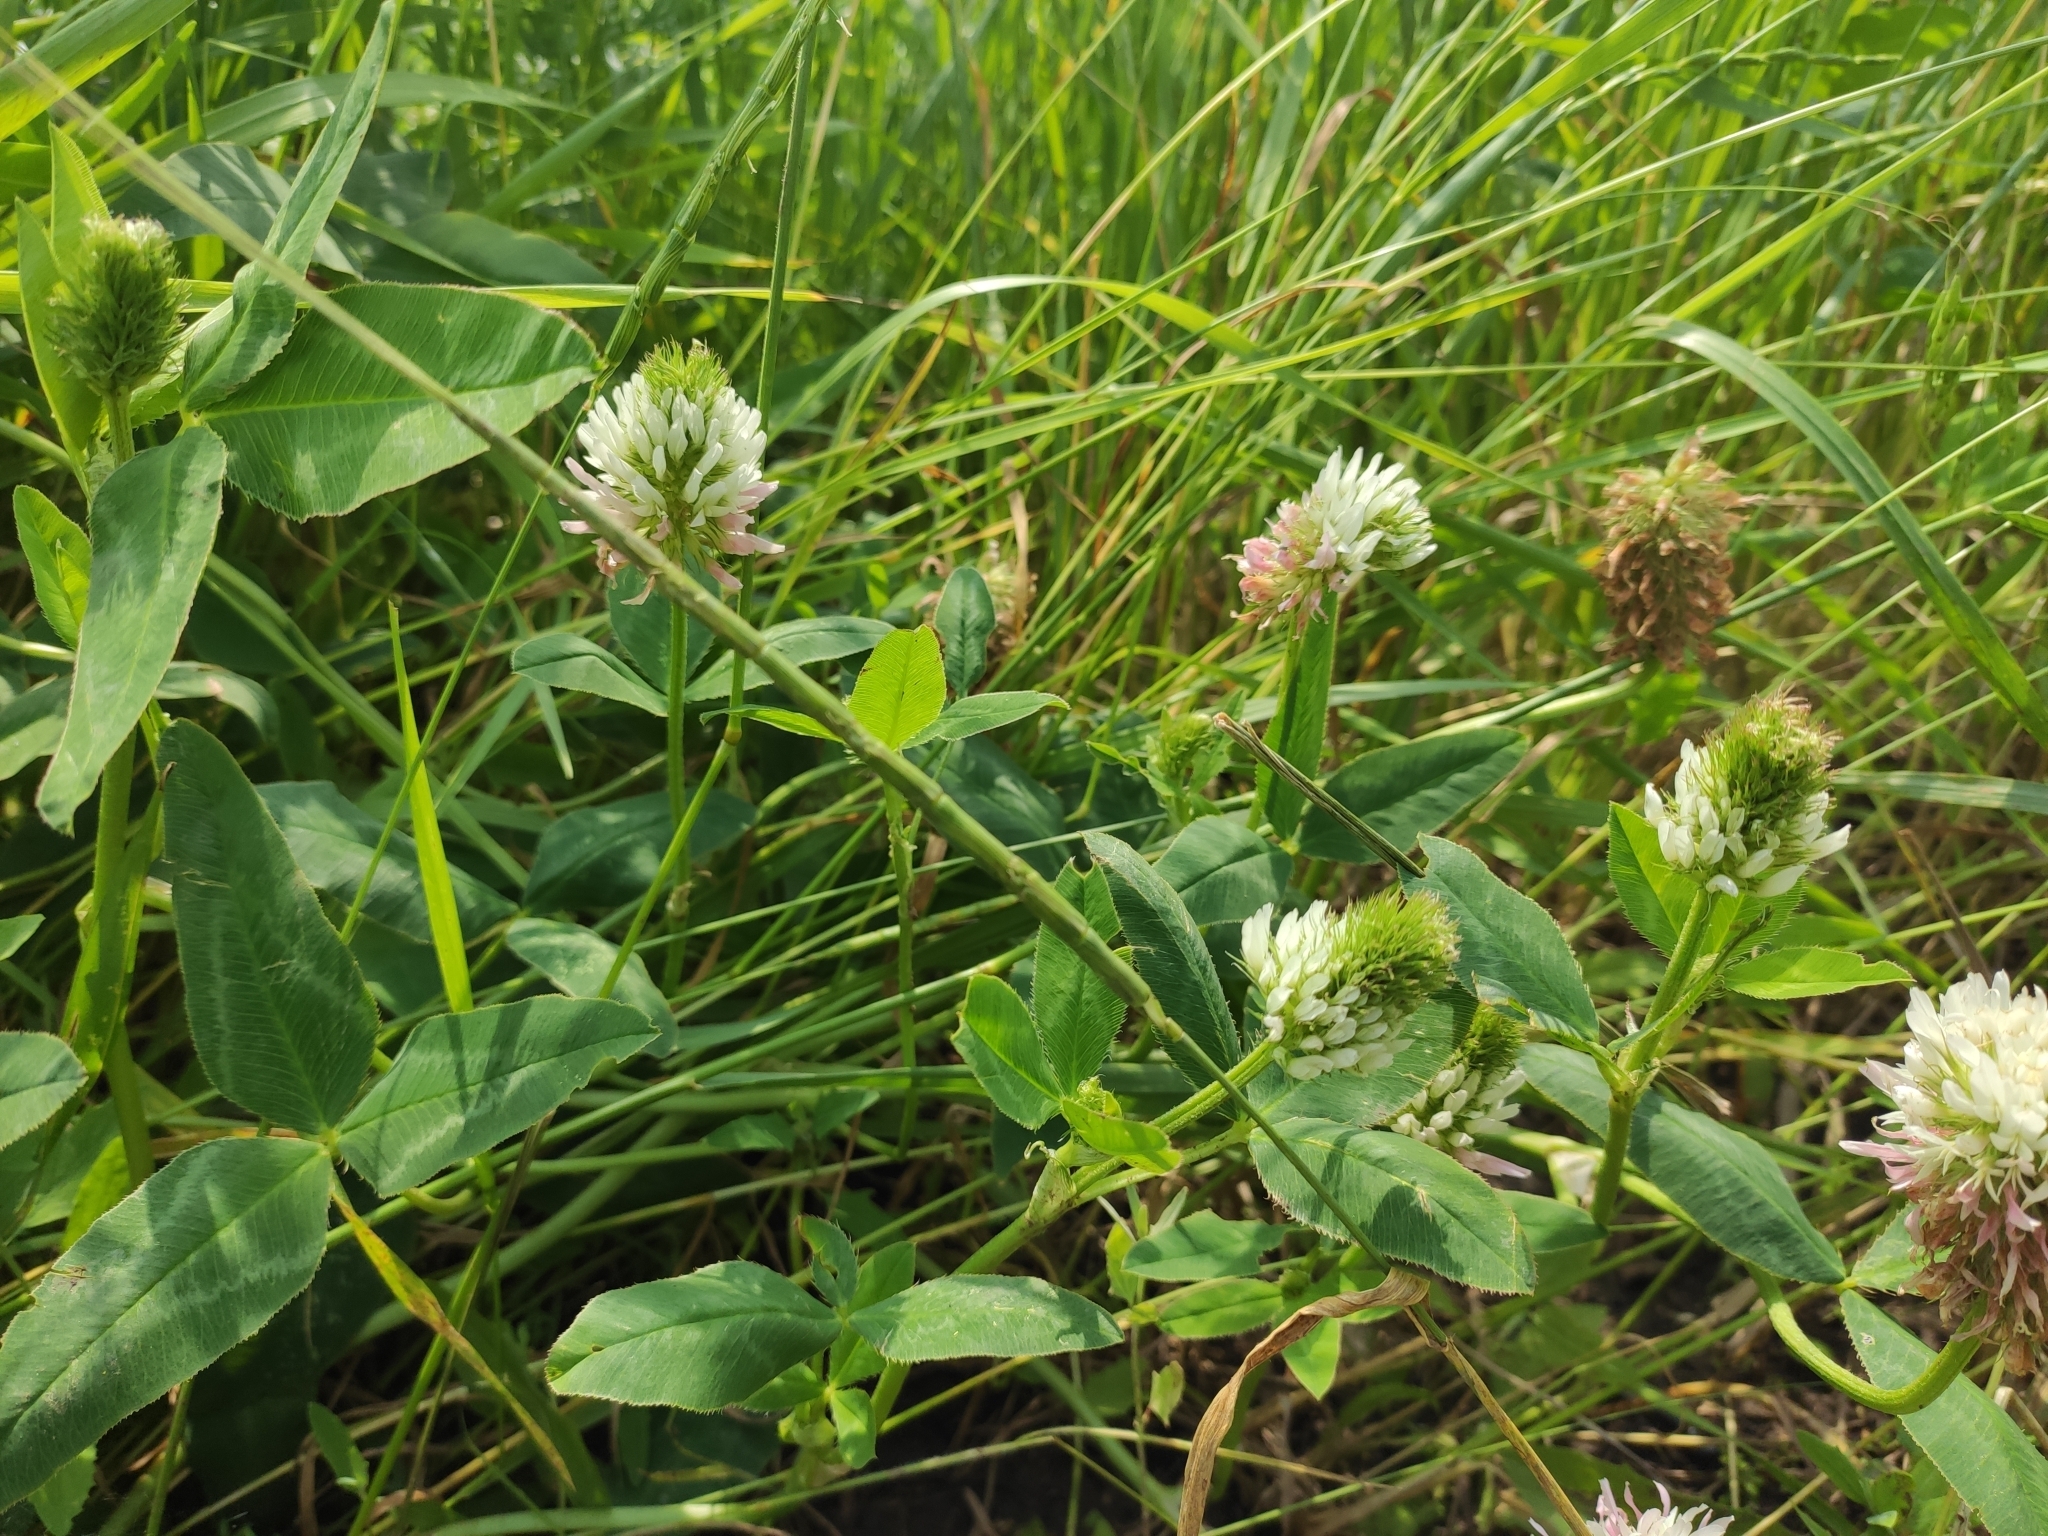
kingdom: Plantae
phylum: Tracheophyta
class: Magnoliopsida
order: Fabales
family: Fabaceae
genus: Trifolium
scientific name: Trifolium ambiguum
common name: Kura clover
